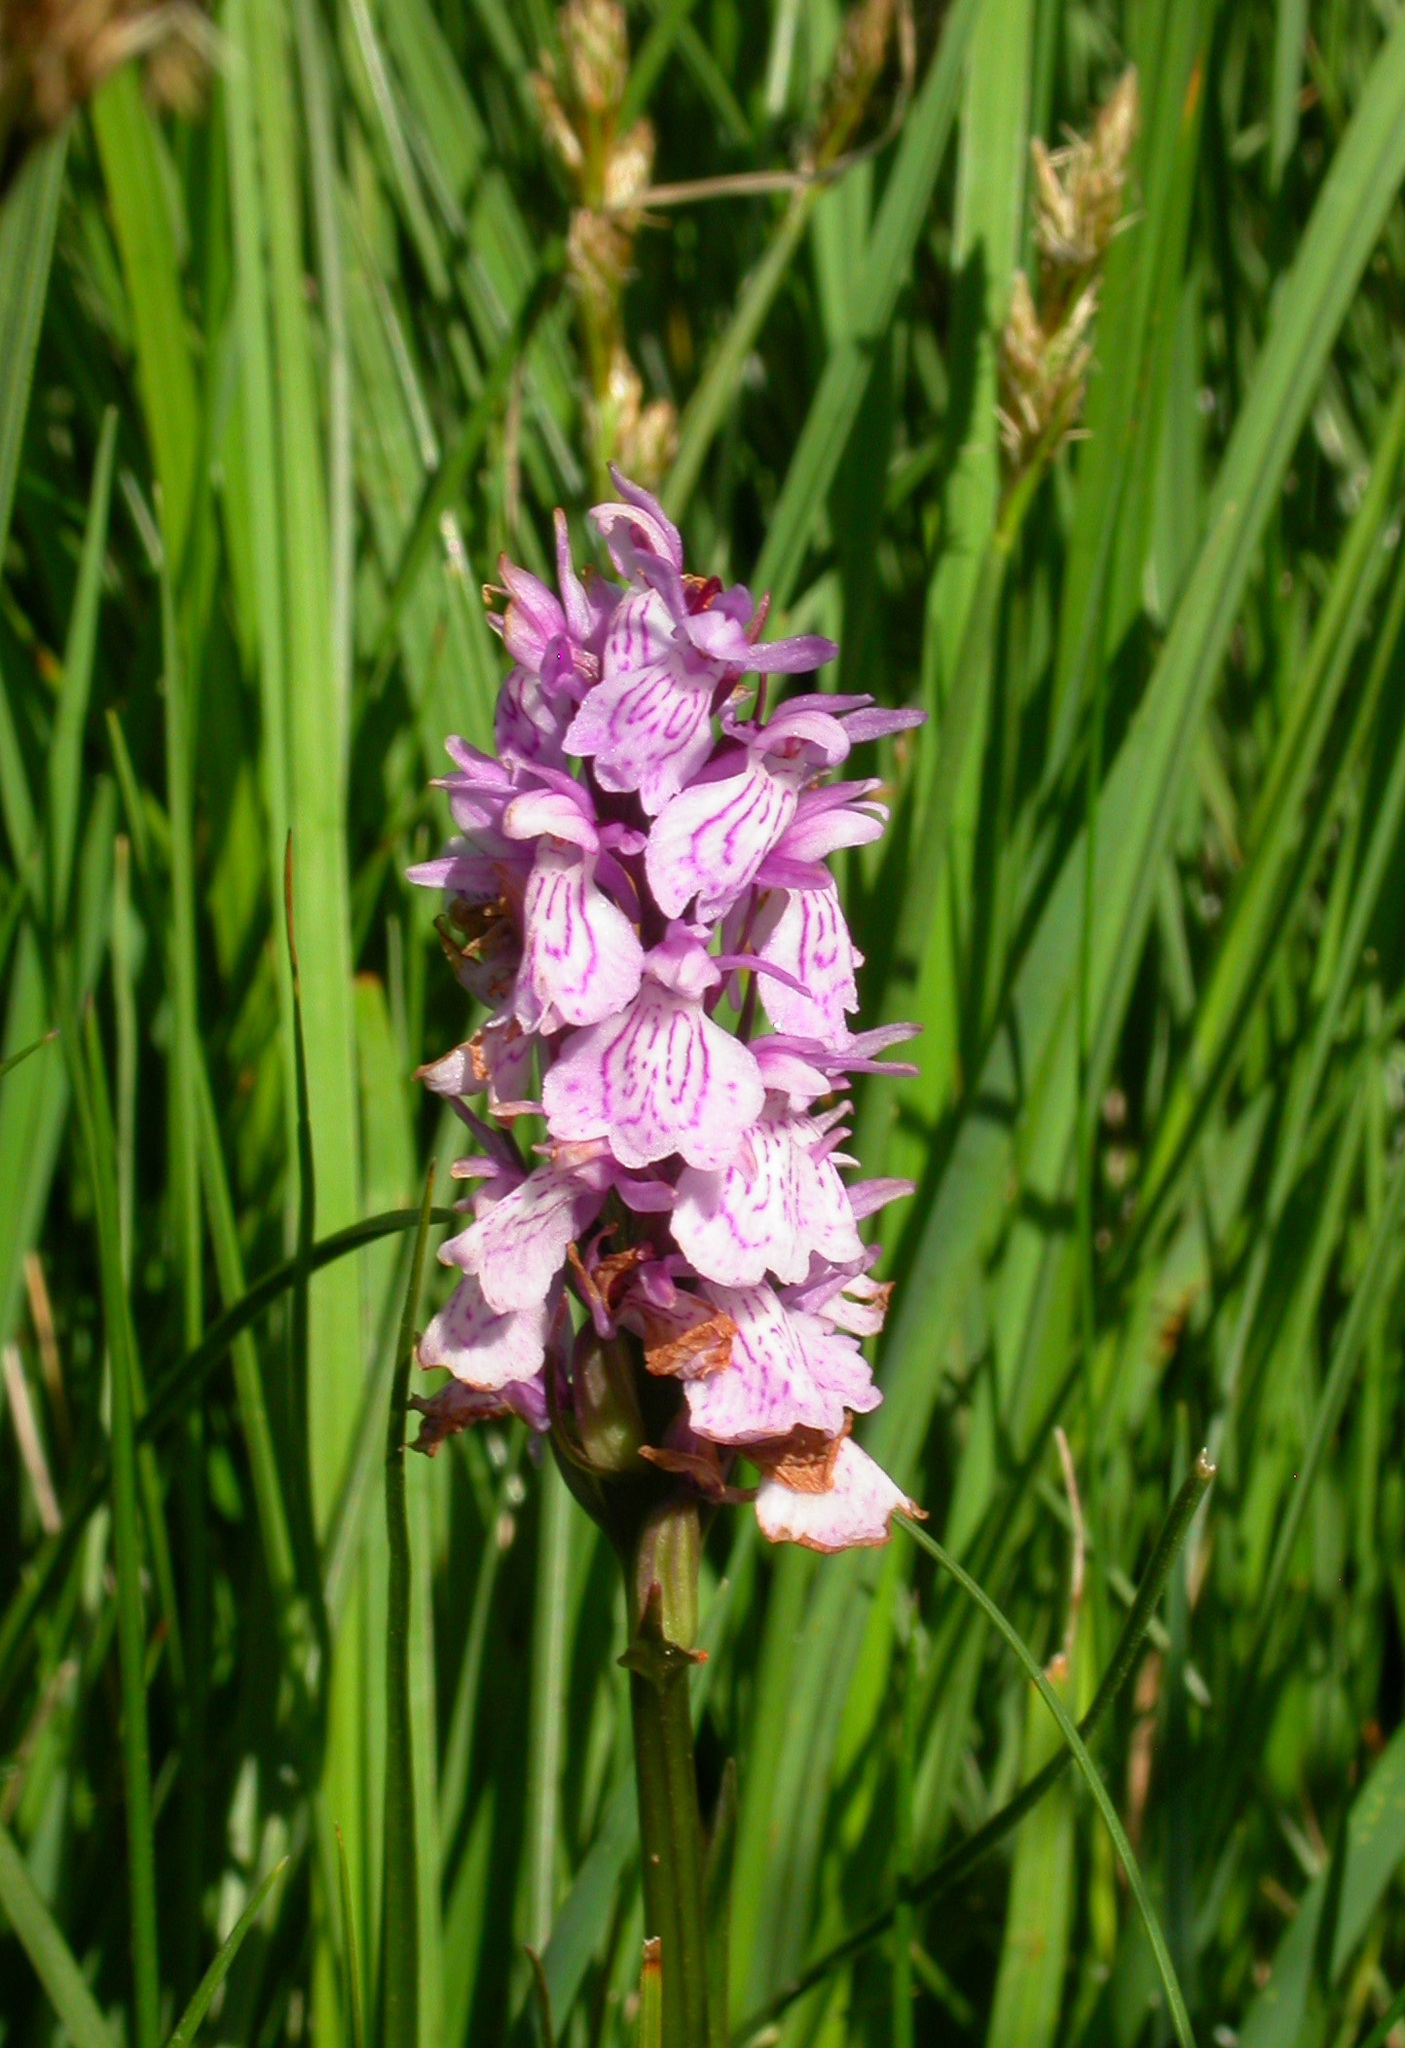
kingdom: Plantae
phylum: Tracheophyta
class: Liliopsida
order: Asparagales
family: Orchidaceae
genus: Dactylorhiza
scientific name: Dactylorhiza maculata
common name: Heath spotted-orchid
